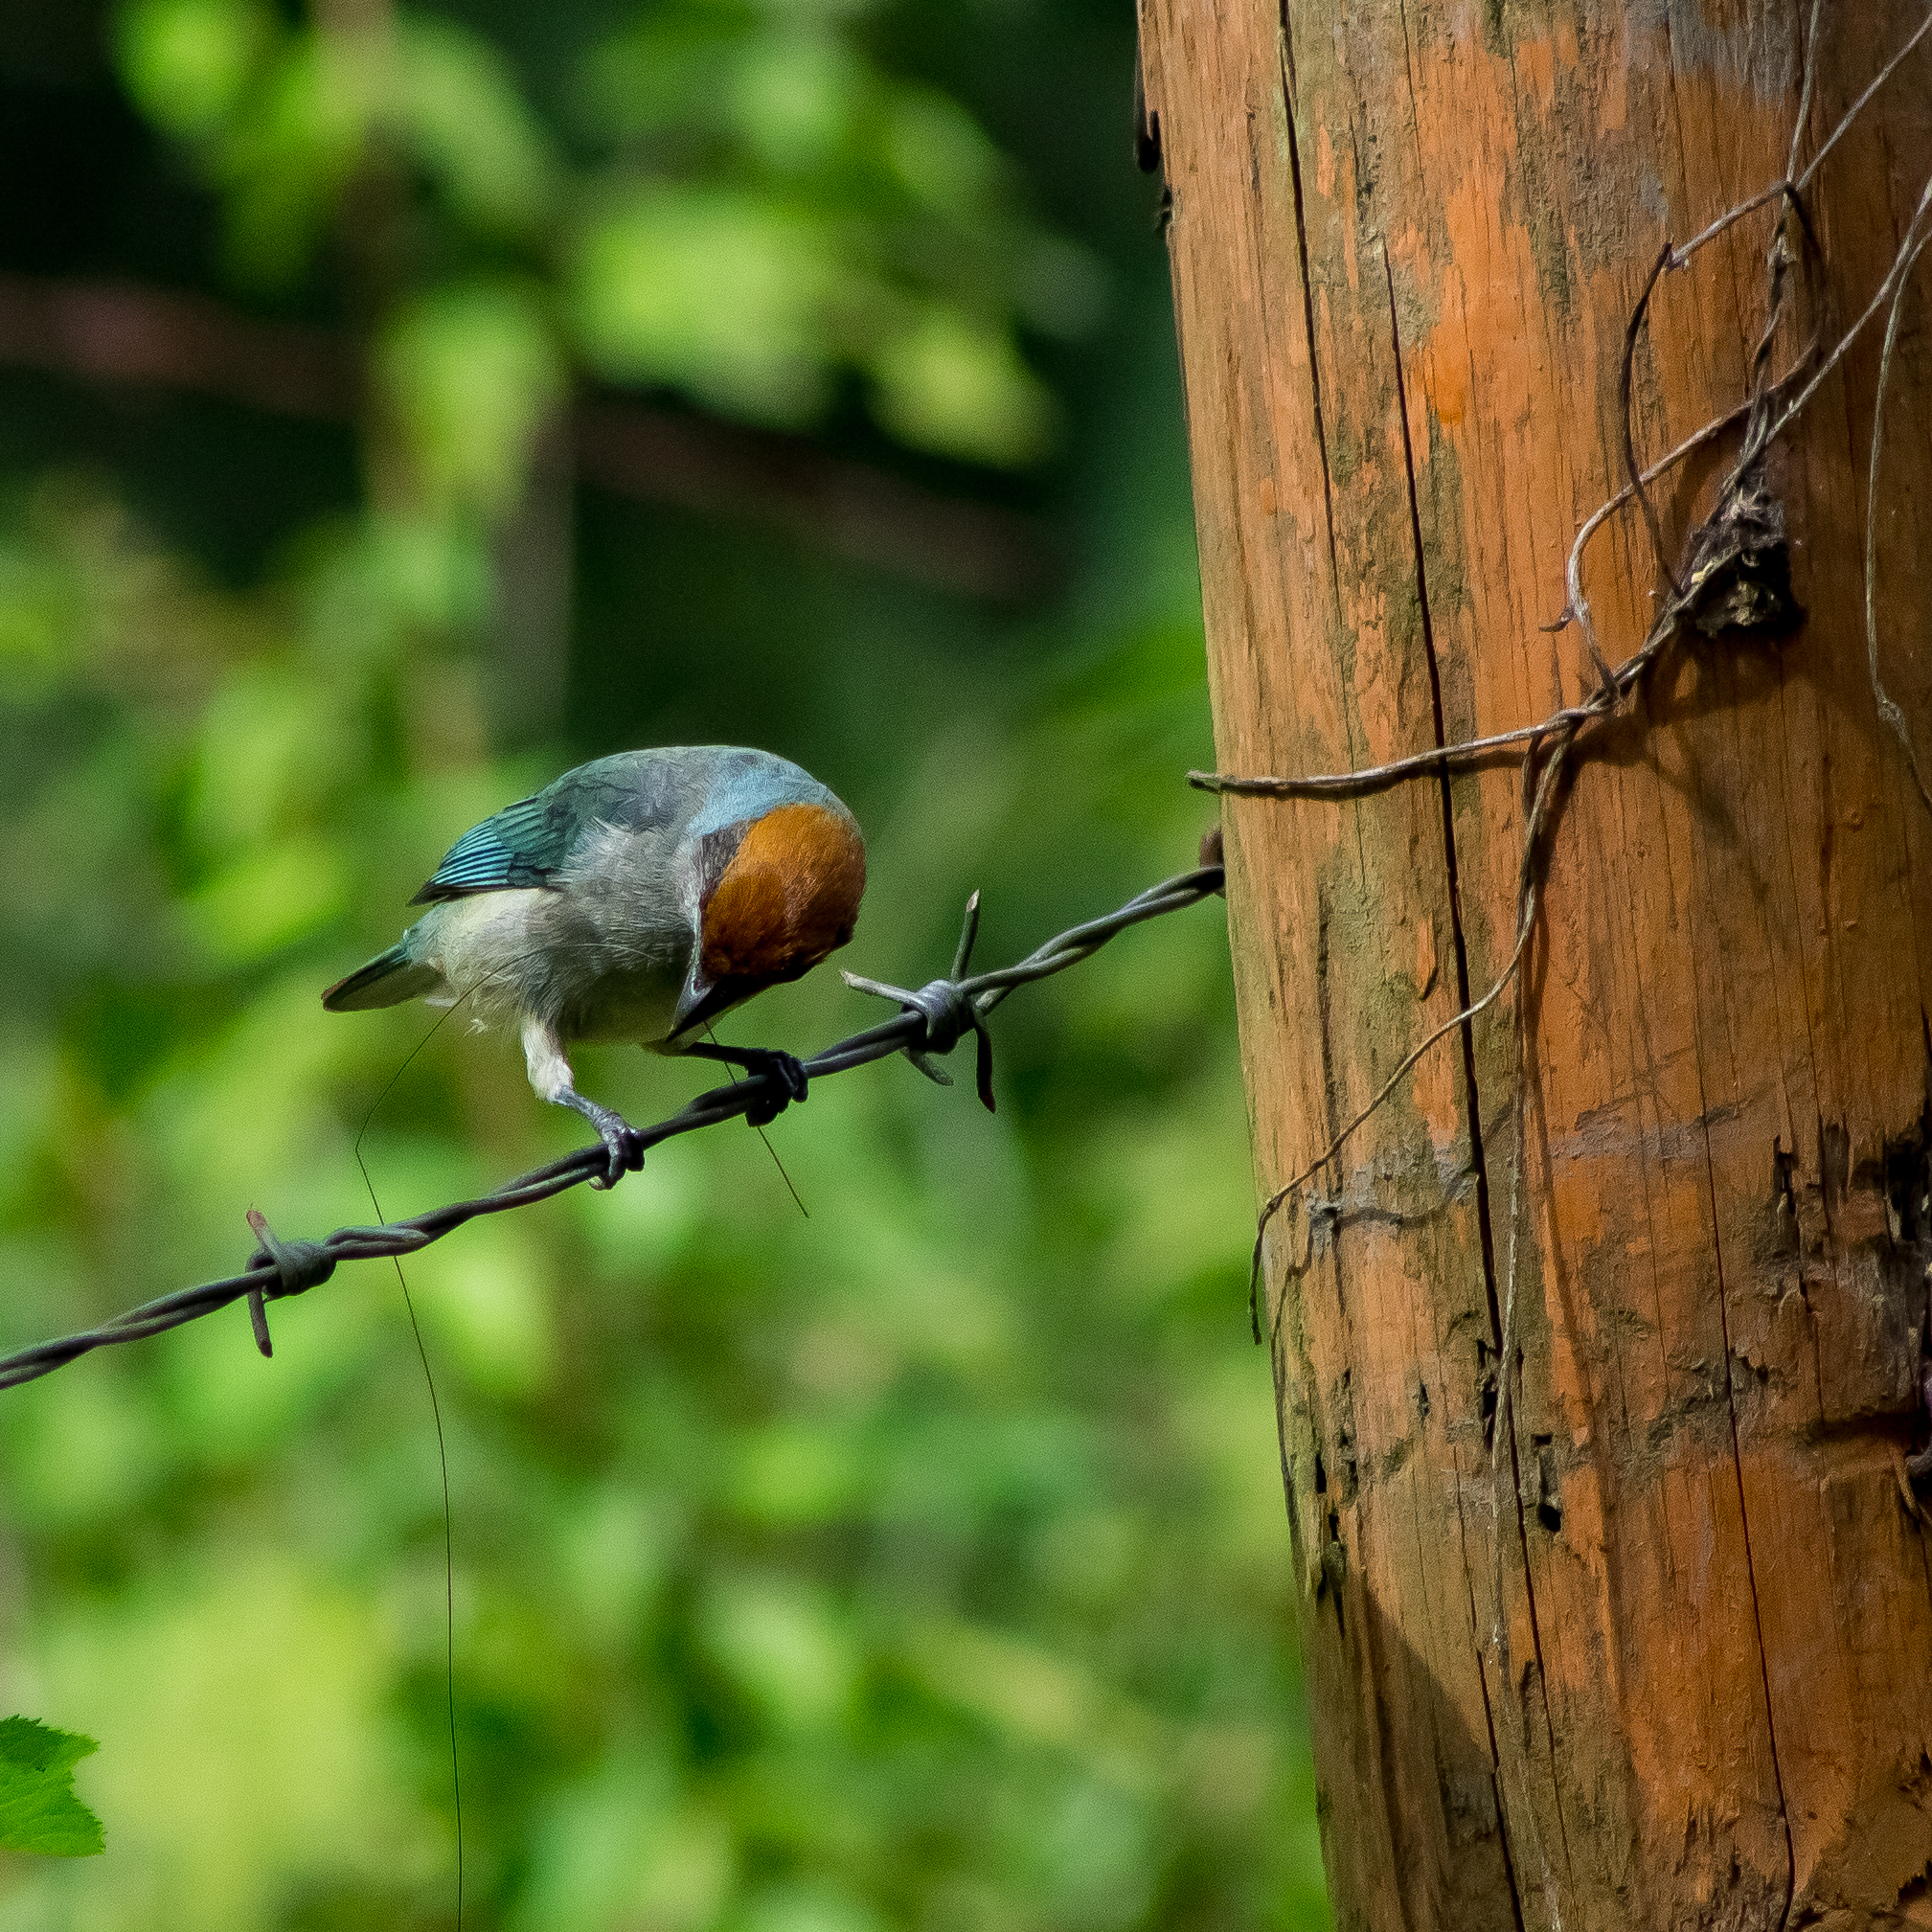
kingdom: Animalia
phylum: Chordata
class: Aves
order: Passeriformes
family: Thraupidae
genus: Stilpnia
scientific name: Stilpnia vitriolina
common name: Scrub tanager
